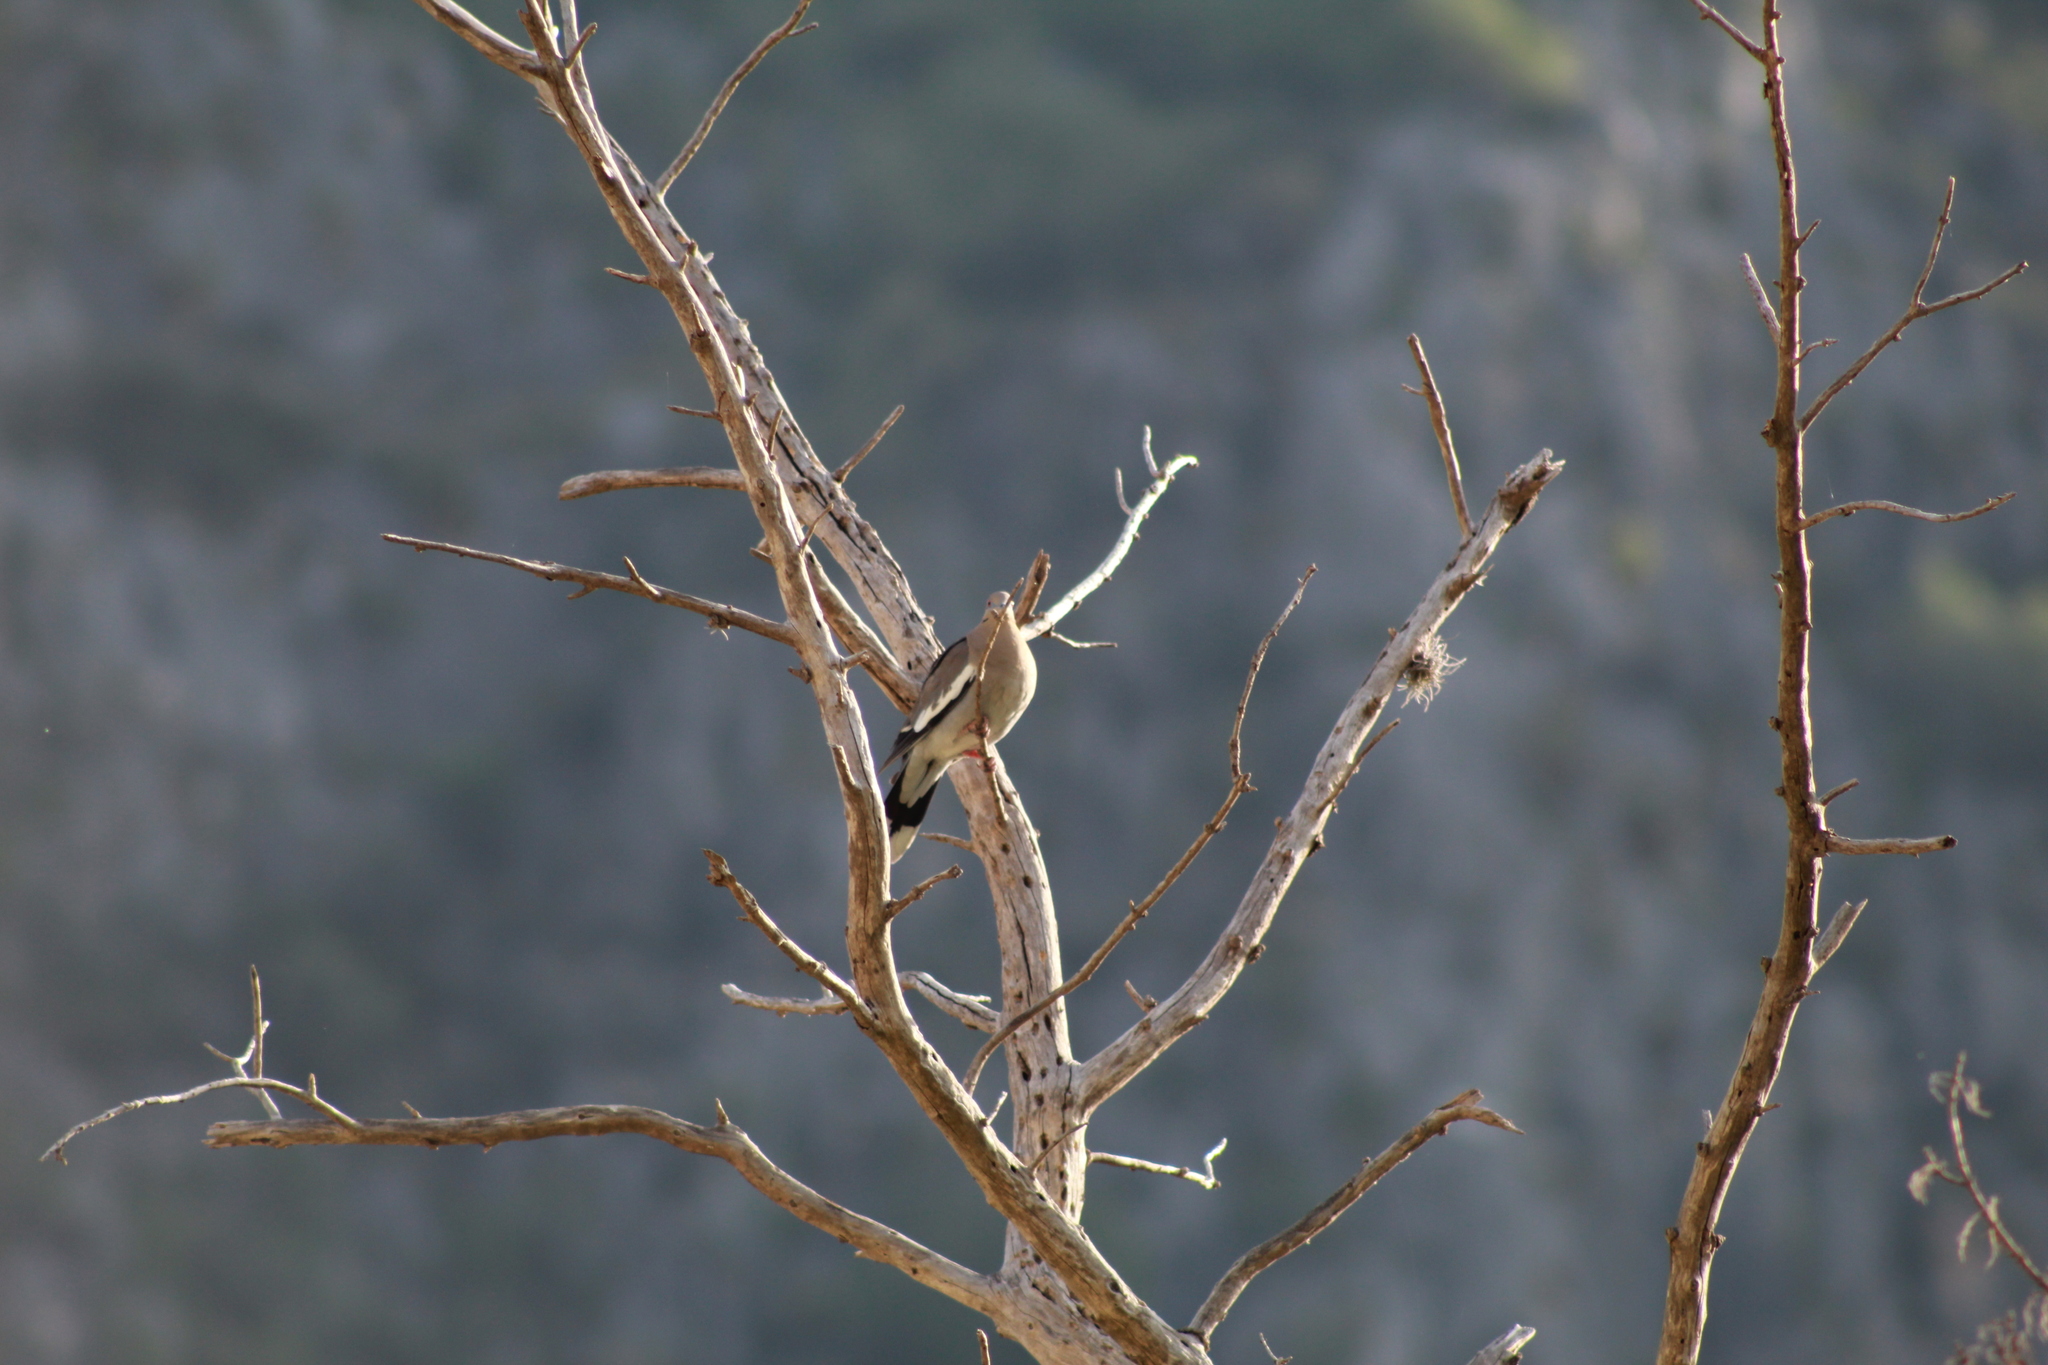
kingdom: Animalia
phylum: Chordata
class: Aves
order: Columbiformes
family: Columbidae
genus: Zenaida
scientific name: Zenaida asiatica
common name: White-winged dove
